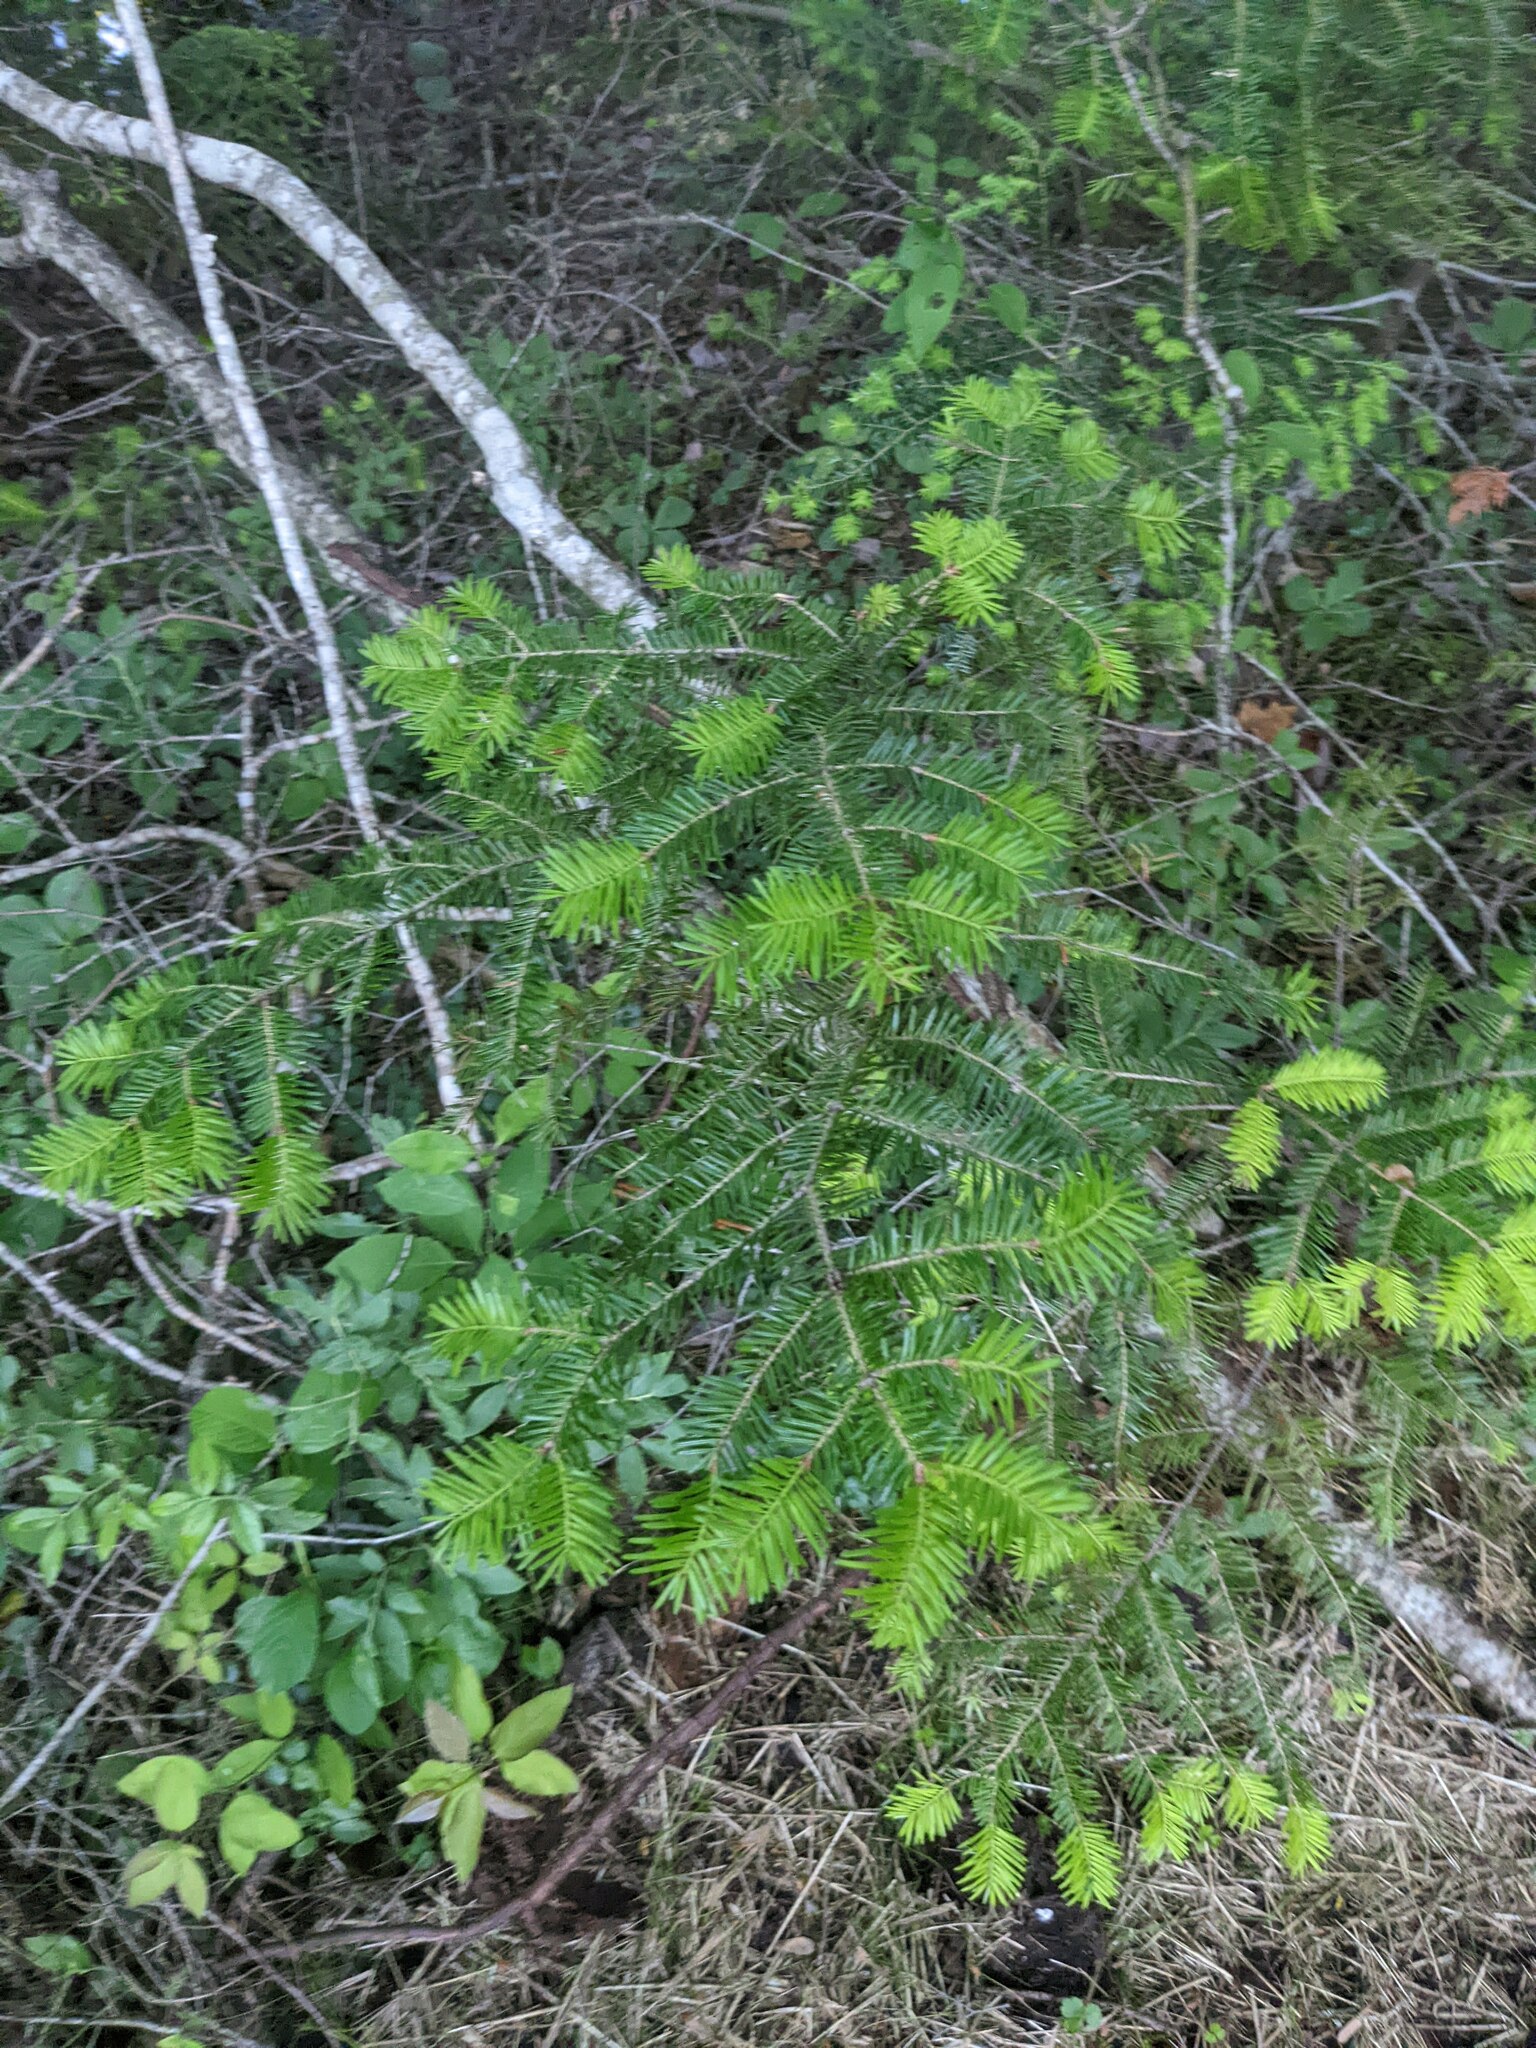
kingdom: Plantae
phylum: Tracheophyta
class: Pinopsida
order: Pinales
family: Pinaceae
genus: Abies
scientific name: Abies balsamea
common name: Balsam fir
